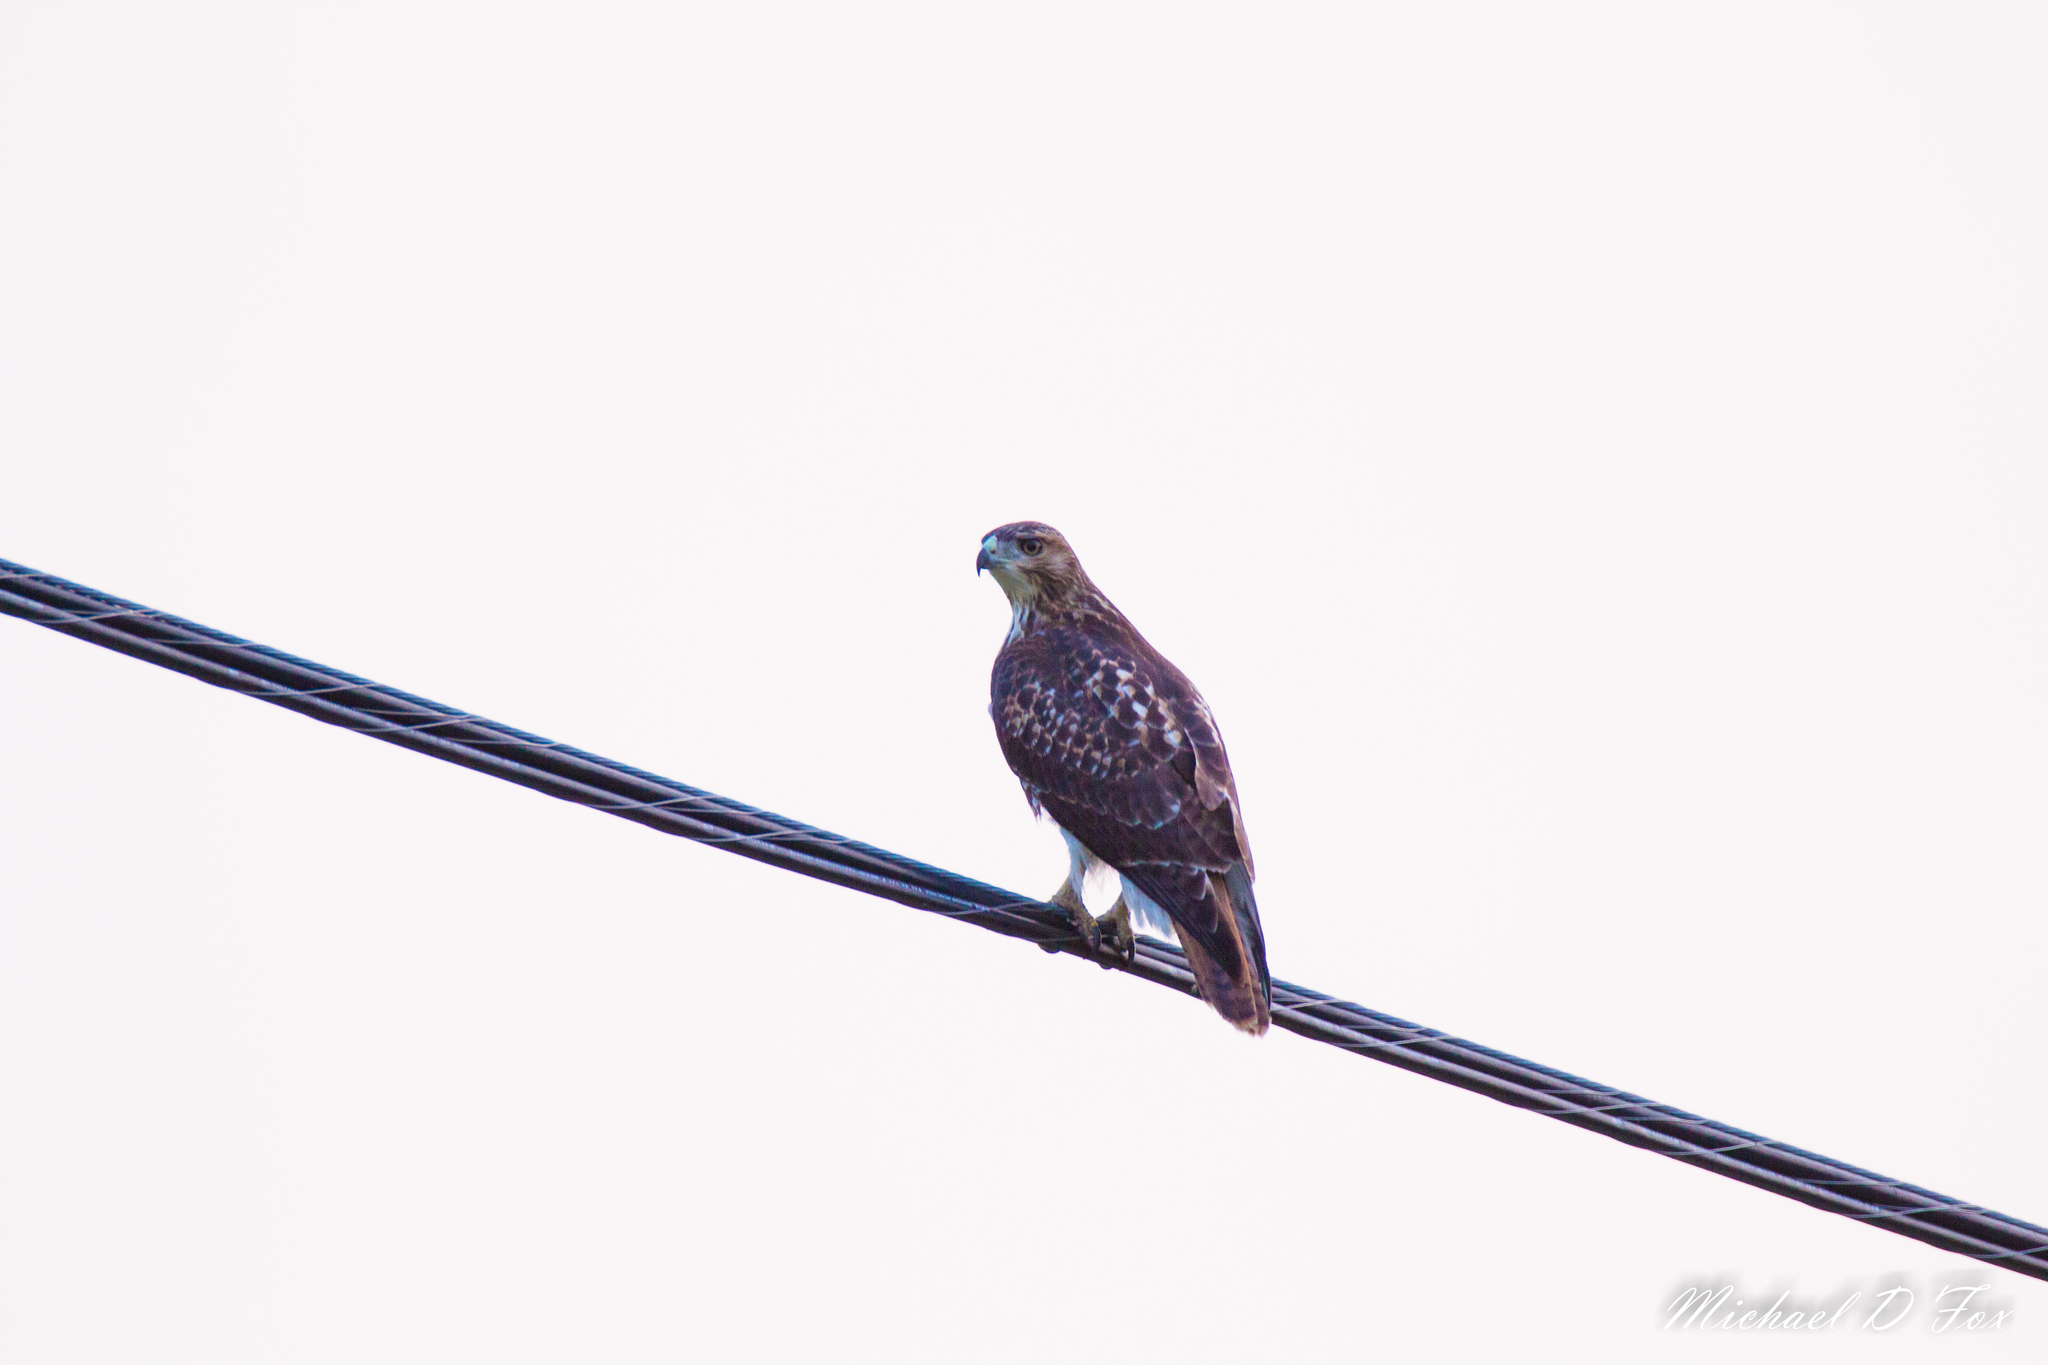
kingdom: Animalia
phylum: Chordata
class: Aves
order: Accipitriformes
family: Accipitridae
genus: Buteo
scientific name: Buteo jamaicensis
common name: Red-tailed hawk
